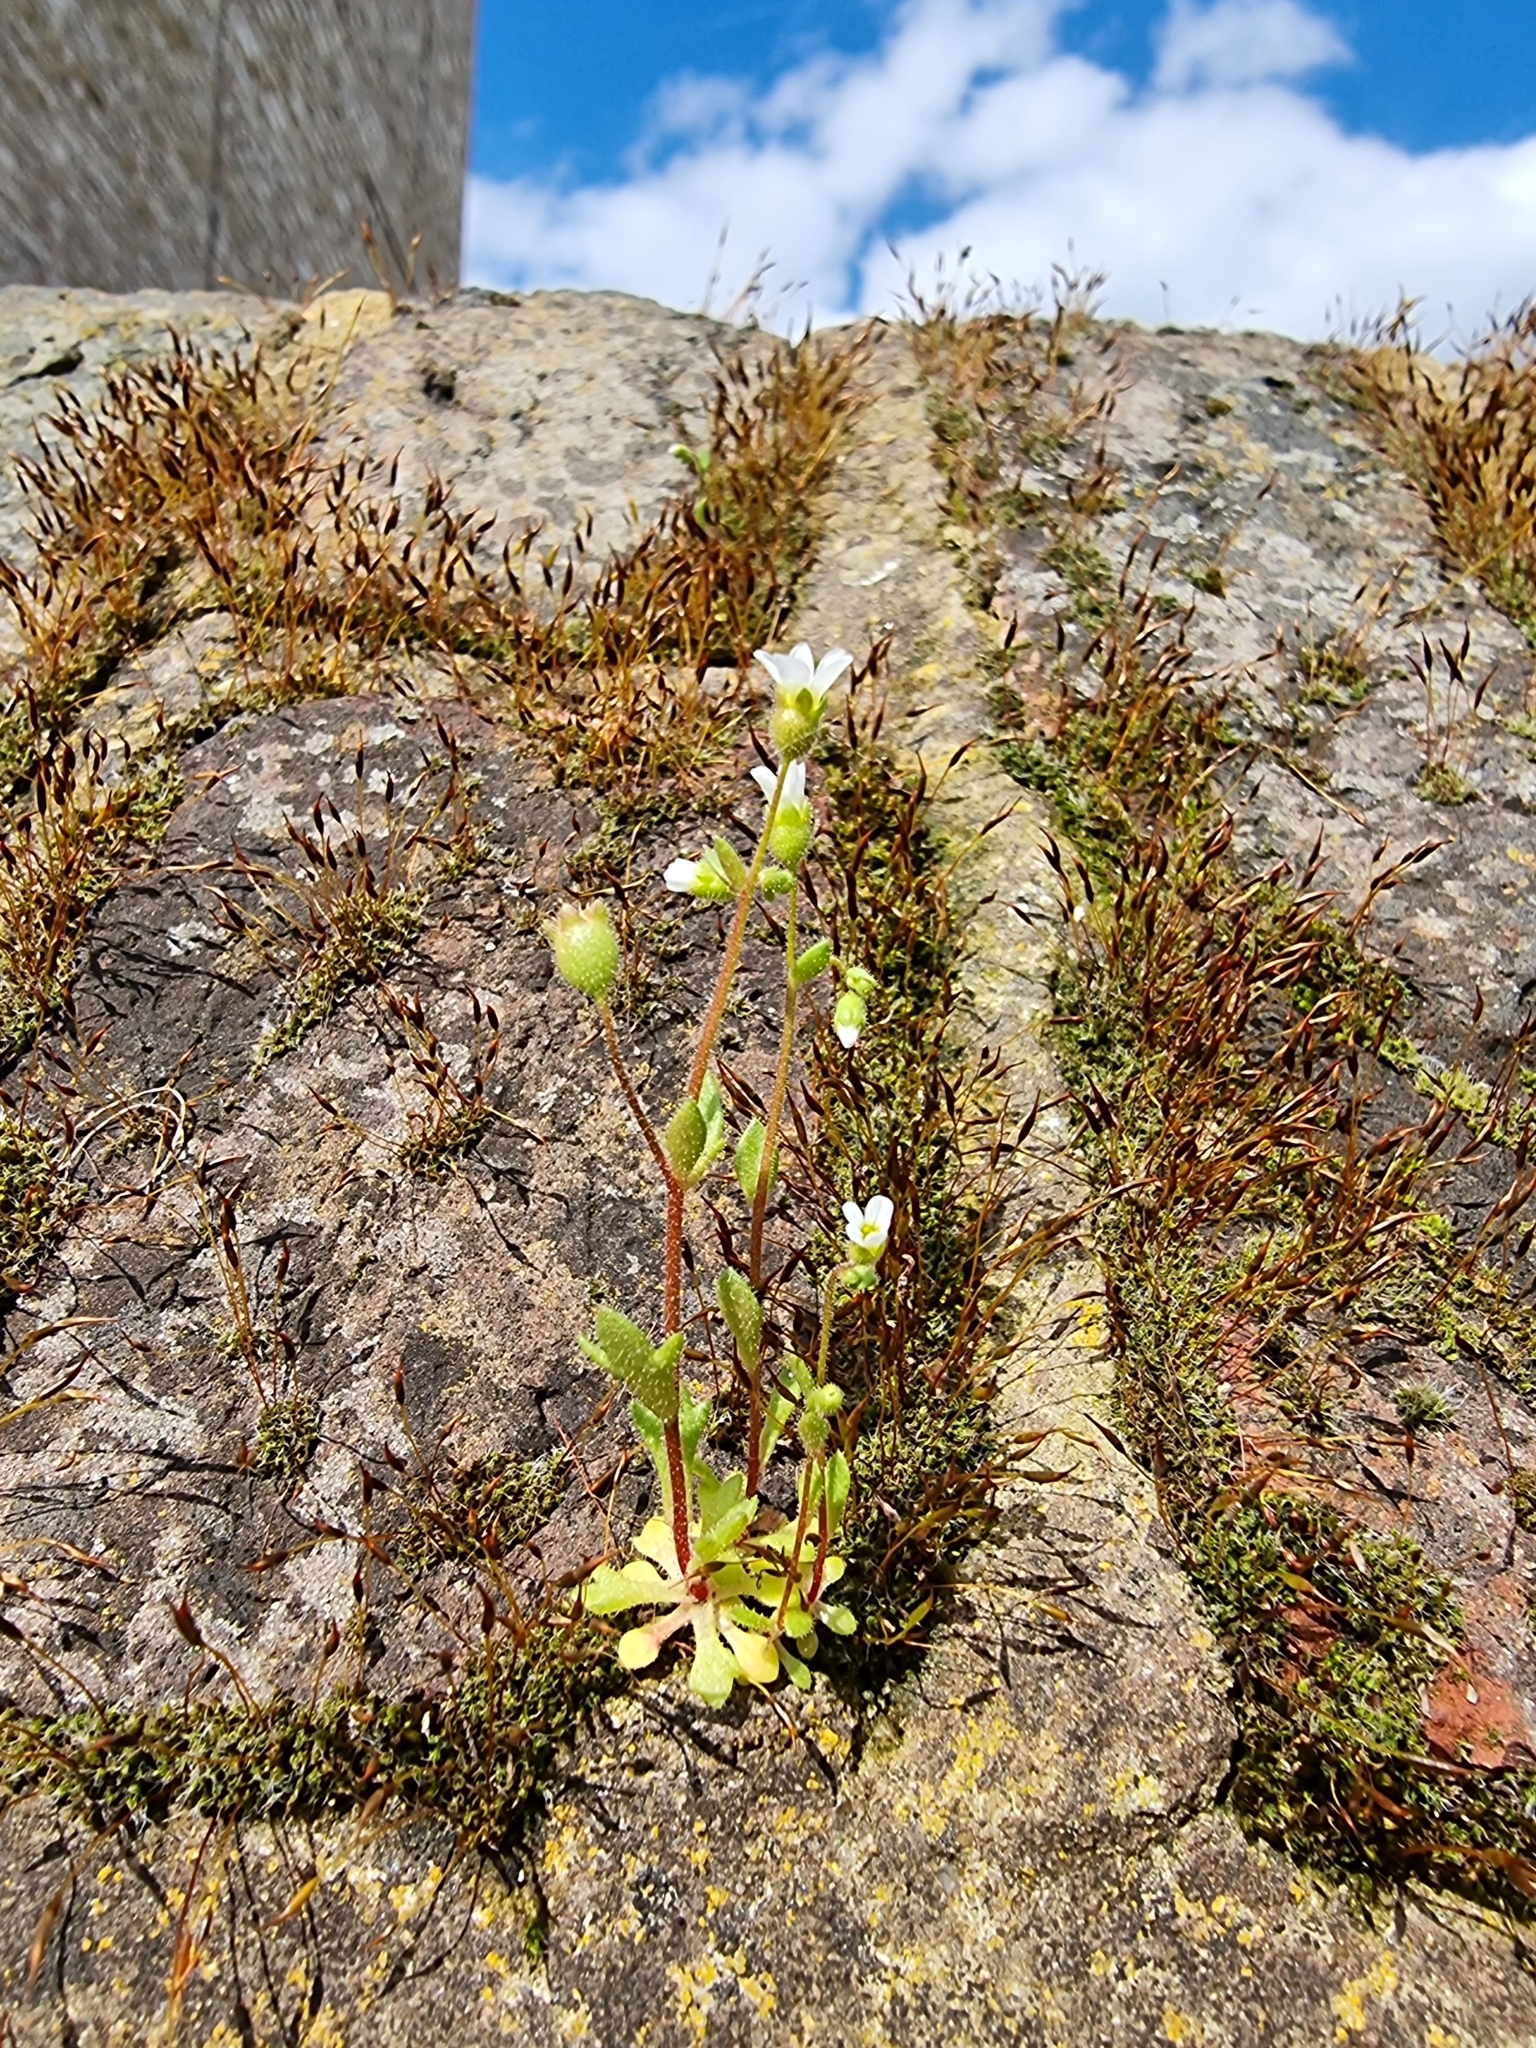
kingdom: Plantae
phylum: Tracheophyta
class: Magnoliopsida
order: Saxifragales
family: Saxifragaceae
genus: Saxifraga
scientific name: Saxifraga tridactylites
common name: Rue-leaved saxifrage
